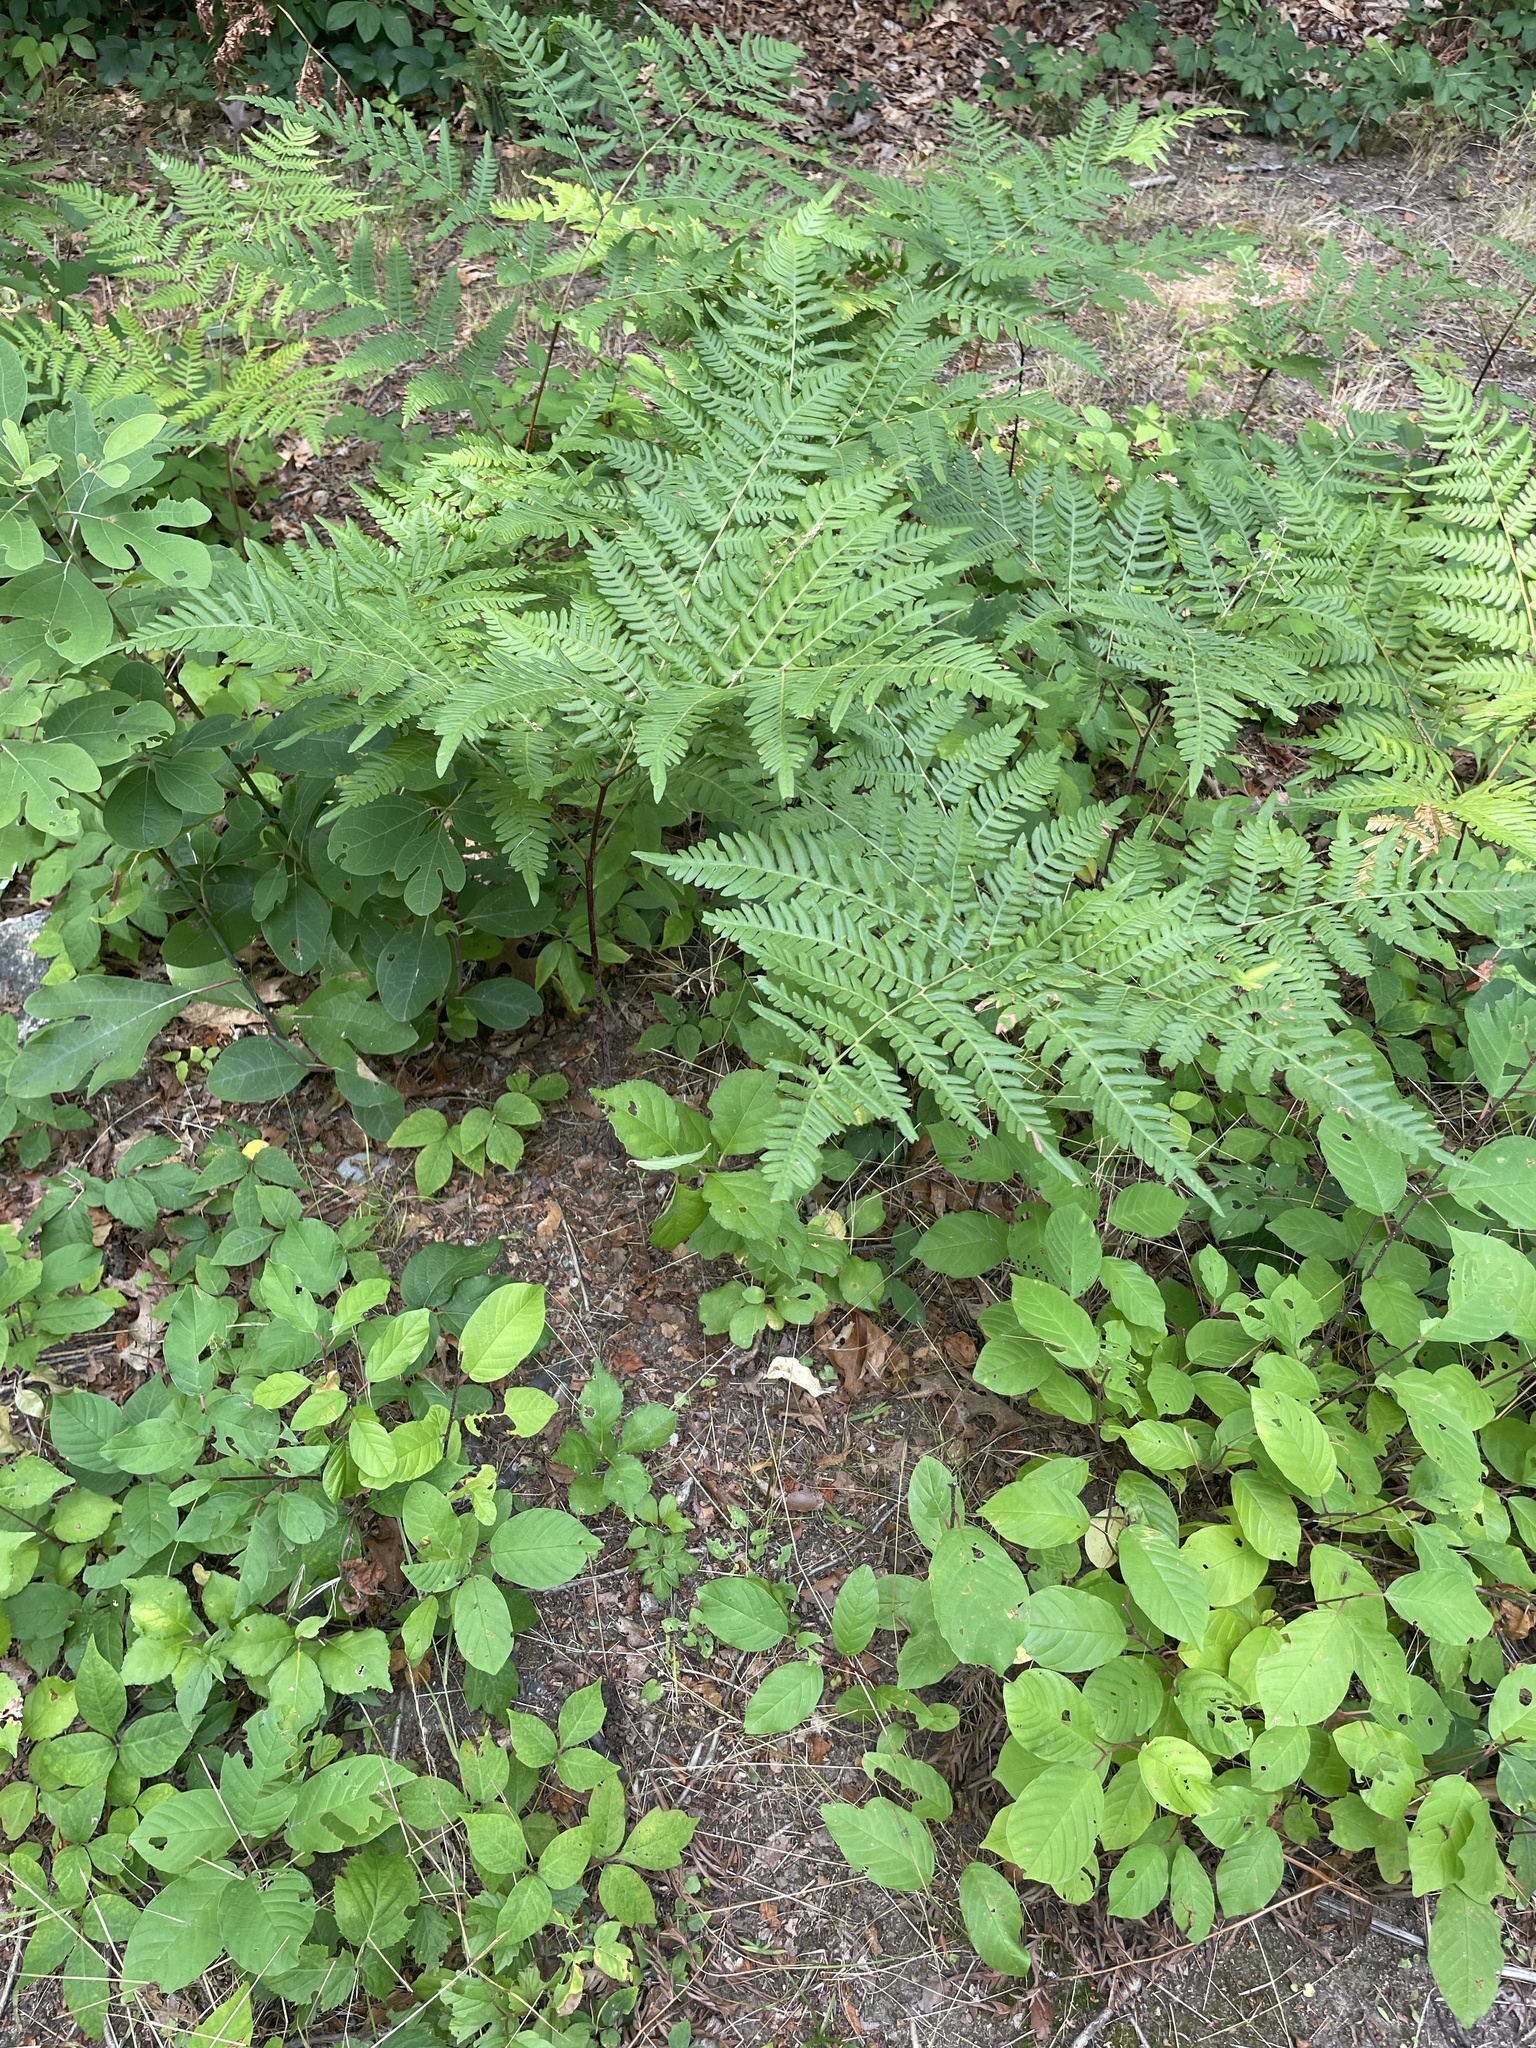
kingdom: Plantae
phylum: Tracheophyta
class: Polypodiopsida
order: Polypodiales
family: Dennstaedtiaceae
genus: Pteridium
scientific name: Pteridium aquilinum
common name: Bracken
